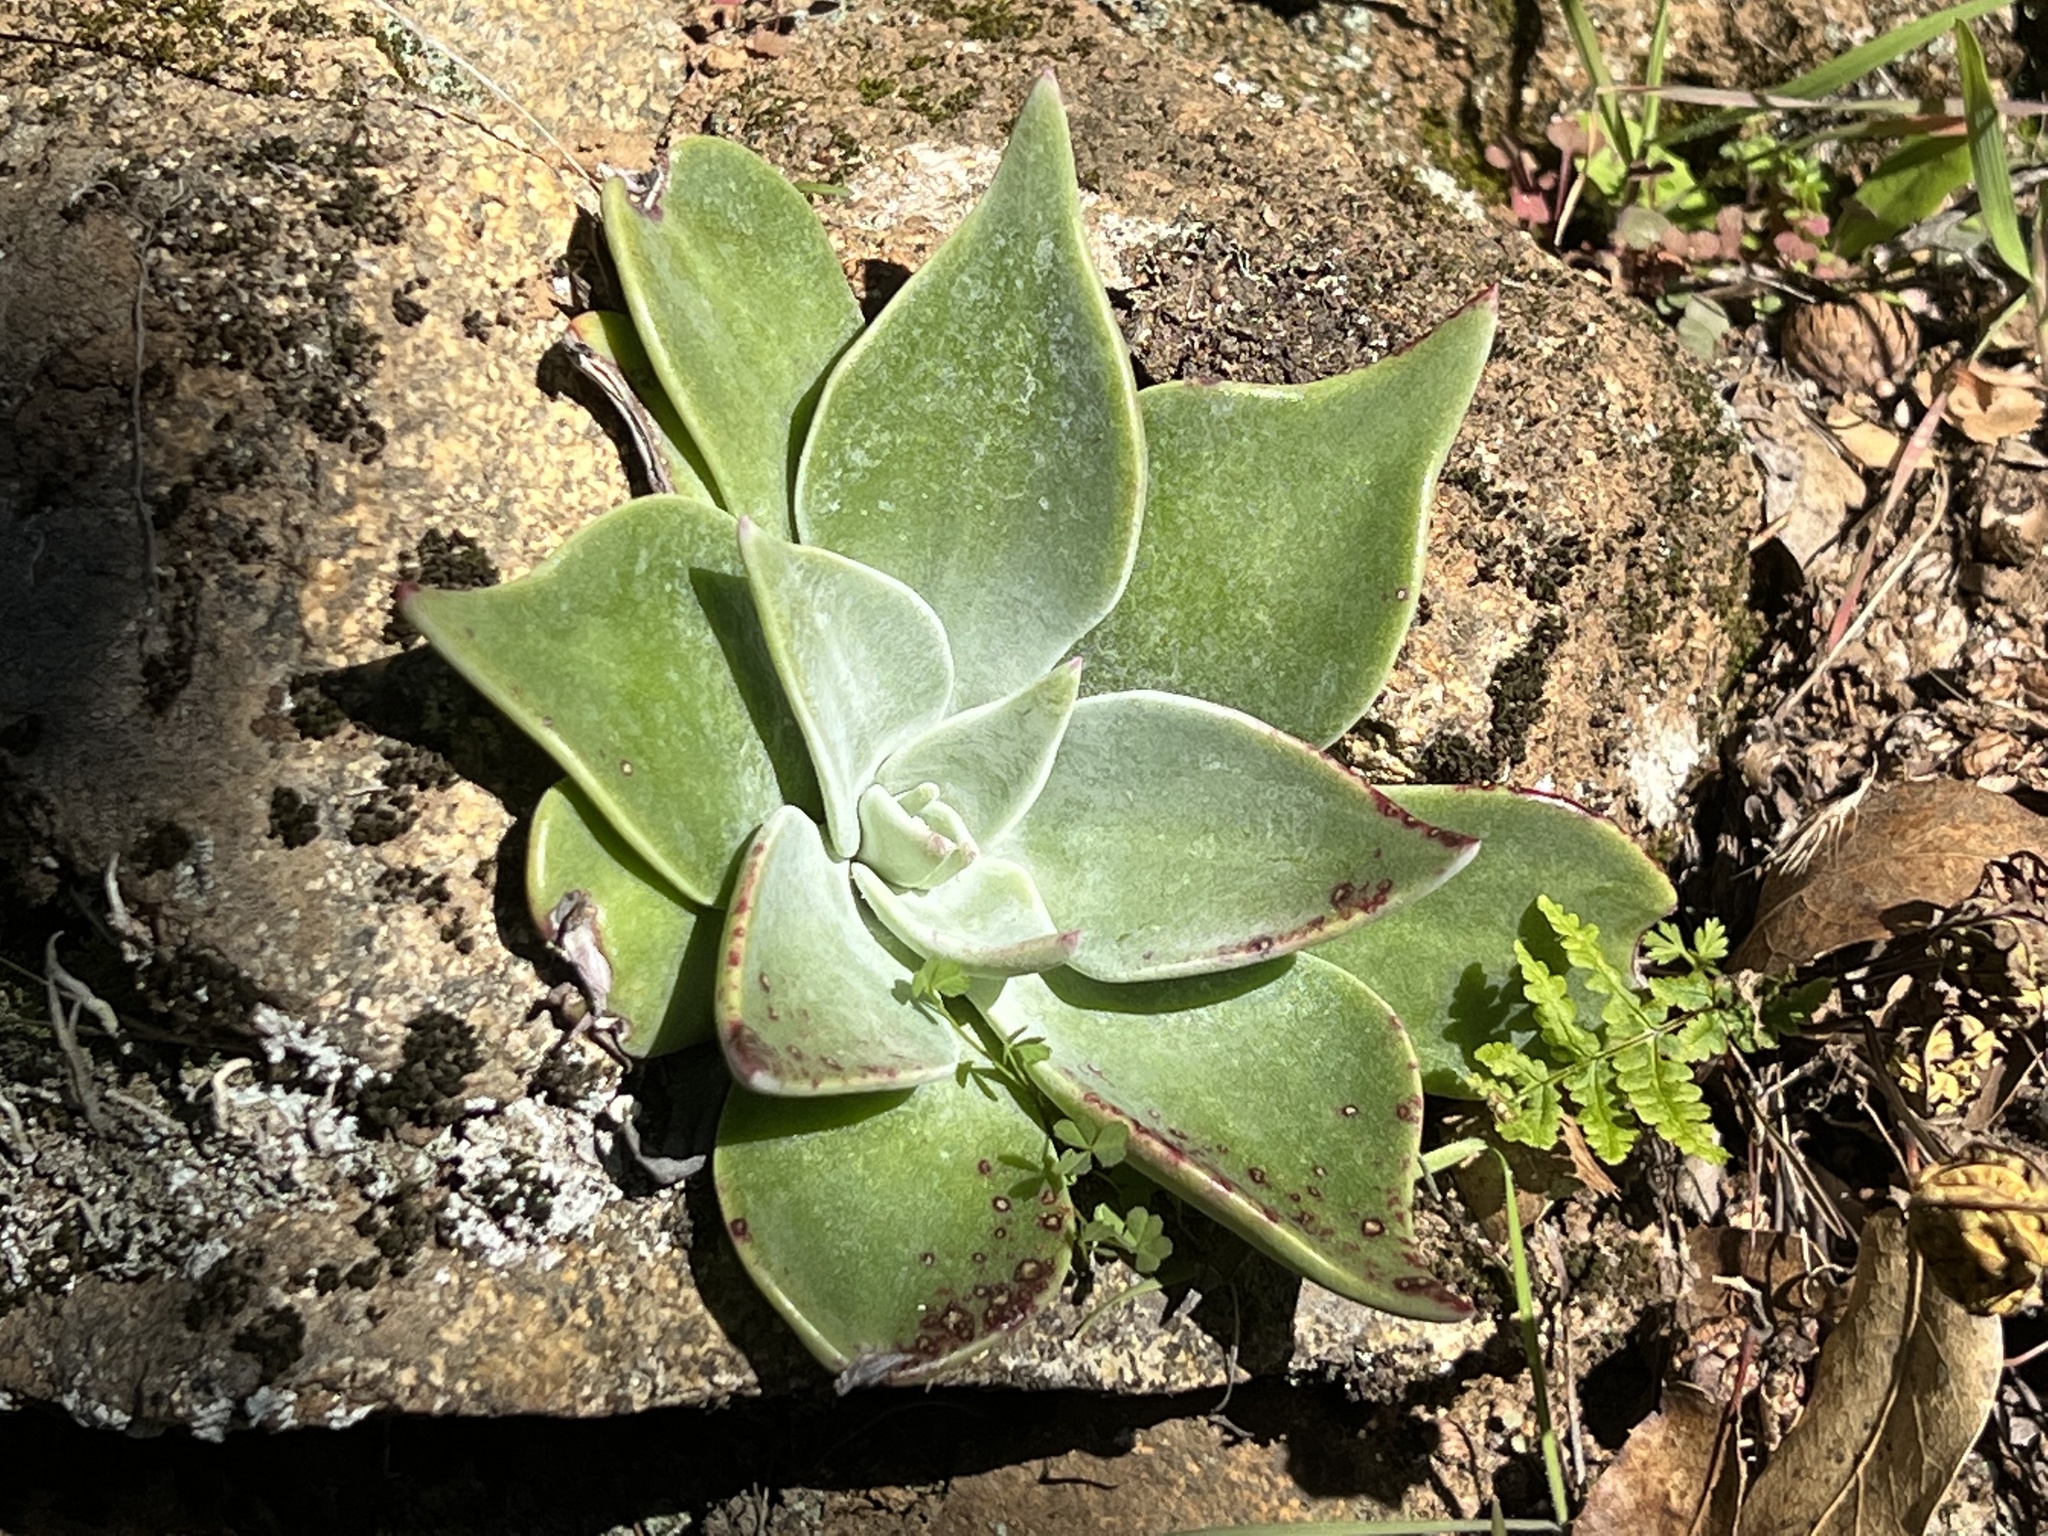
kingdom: Plantae
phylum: Tracheophyta
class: Magnoliopsida
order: Saxifragales
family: Crassulaceae
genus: Dudleya
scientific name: Dudleya cymosa
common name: Canyon dudleya
